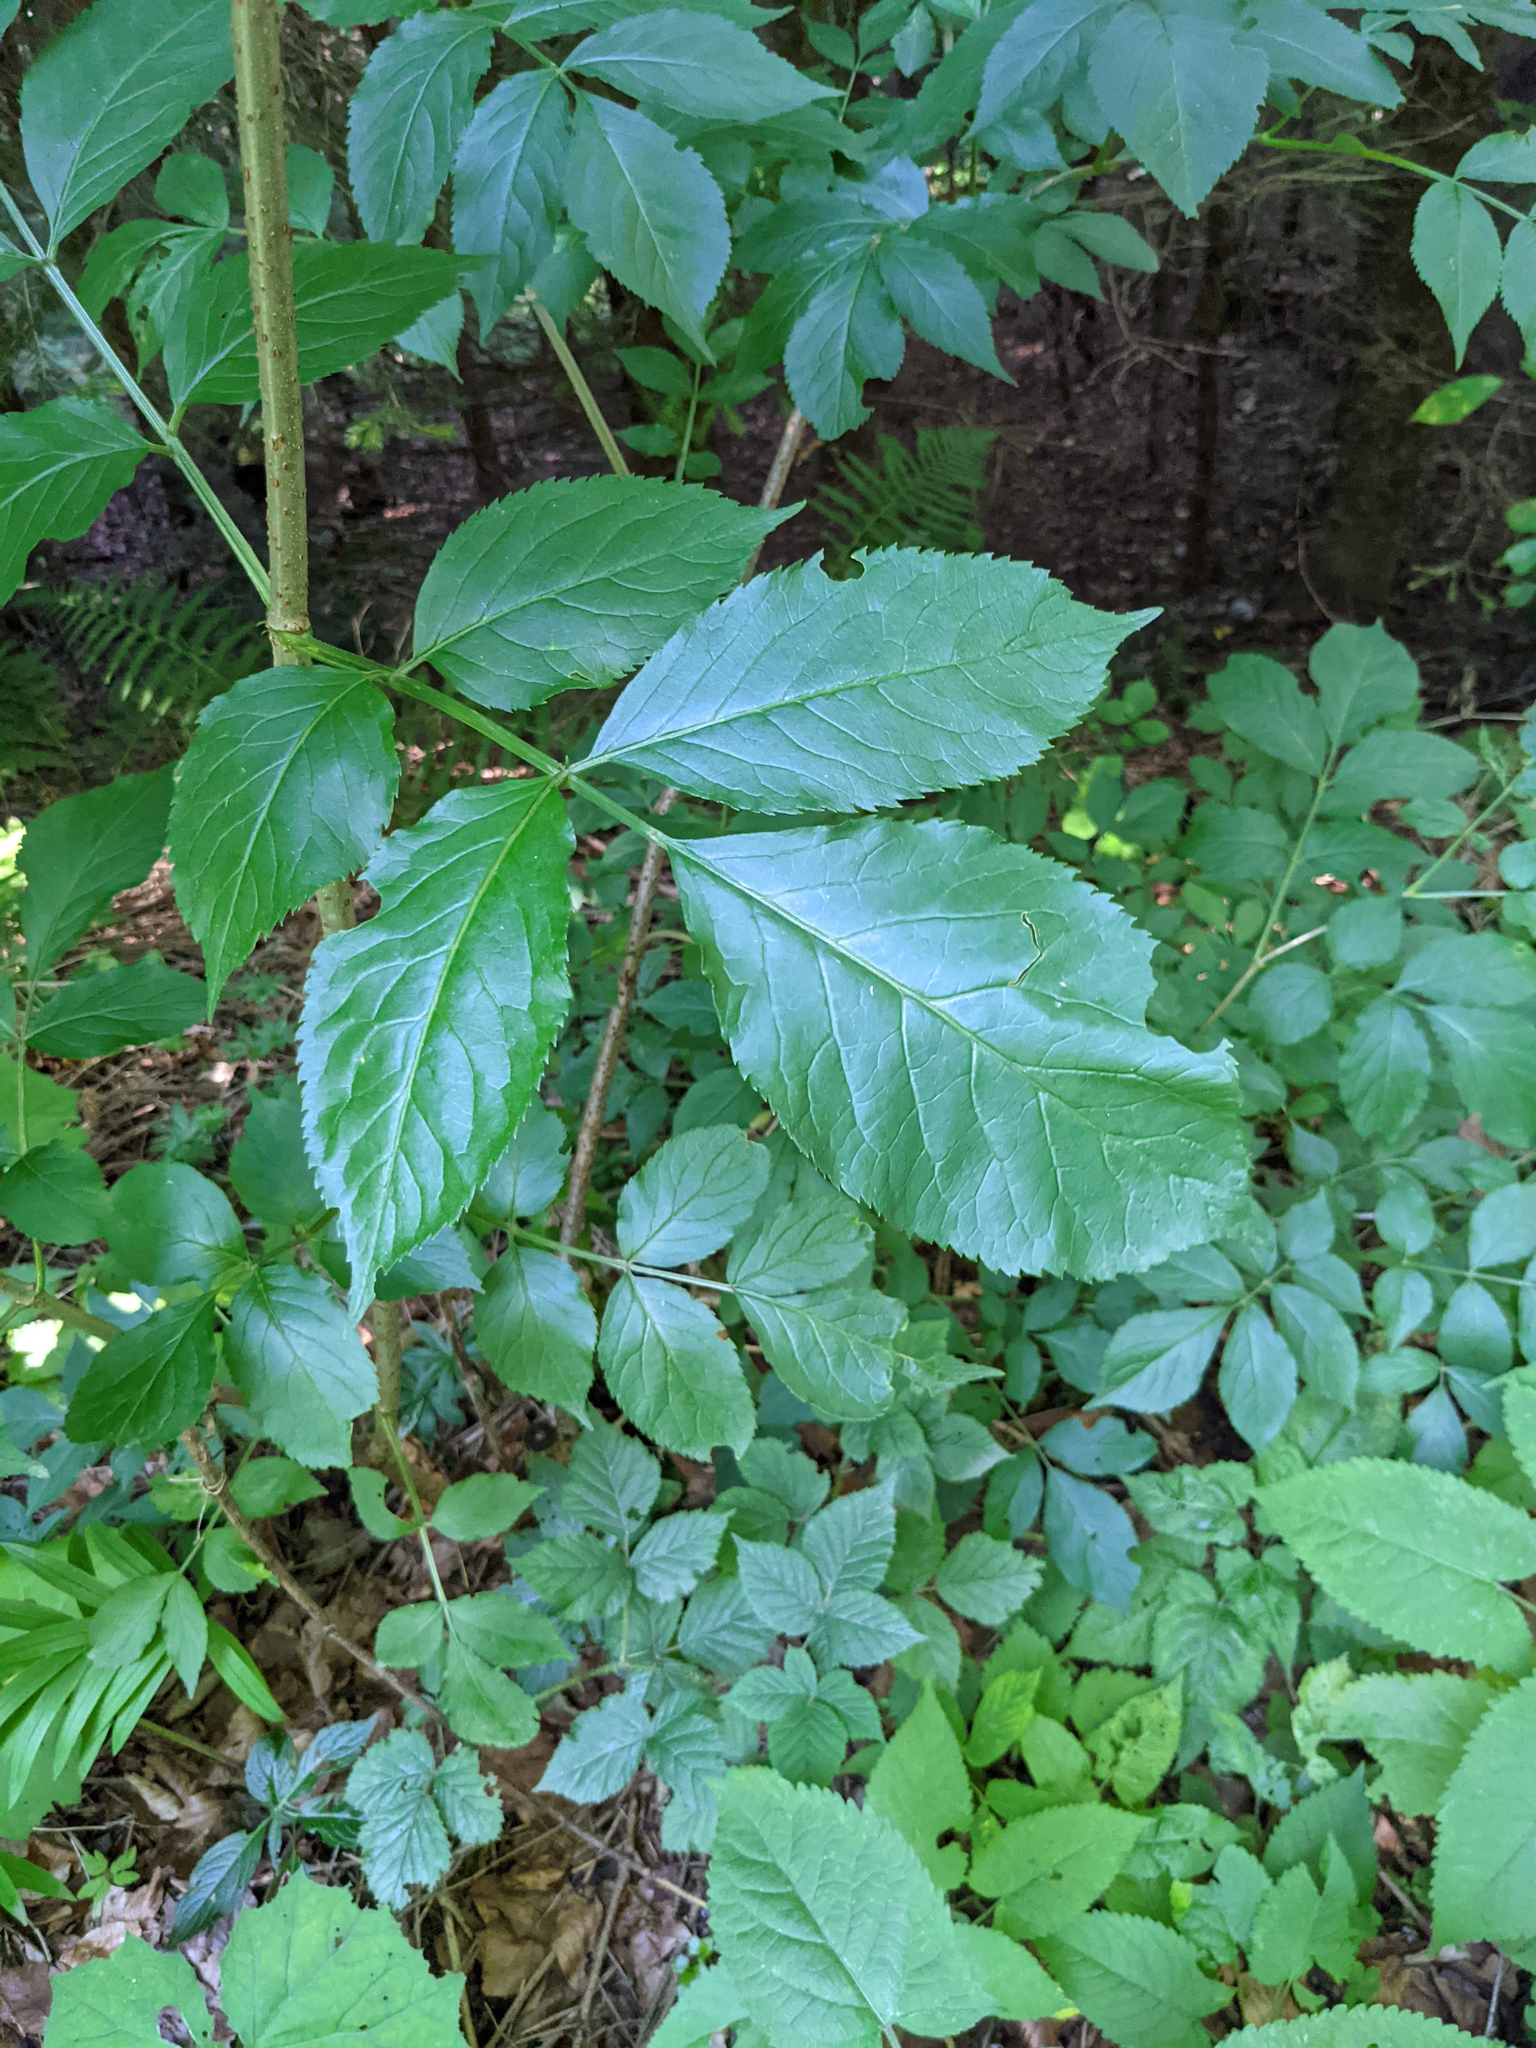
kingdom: Plantae
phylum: Tracheophyta
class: Magnoliopsida
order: Dipsacales
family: Viburnaceae
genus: Sambucus
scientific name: Sambucus nigra
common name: Elder
